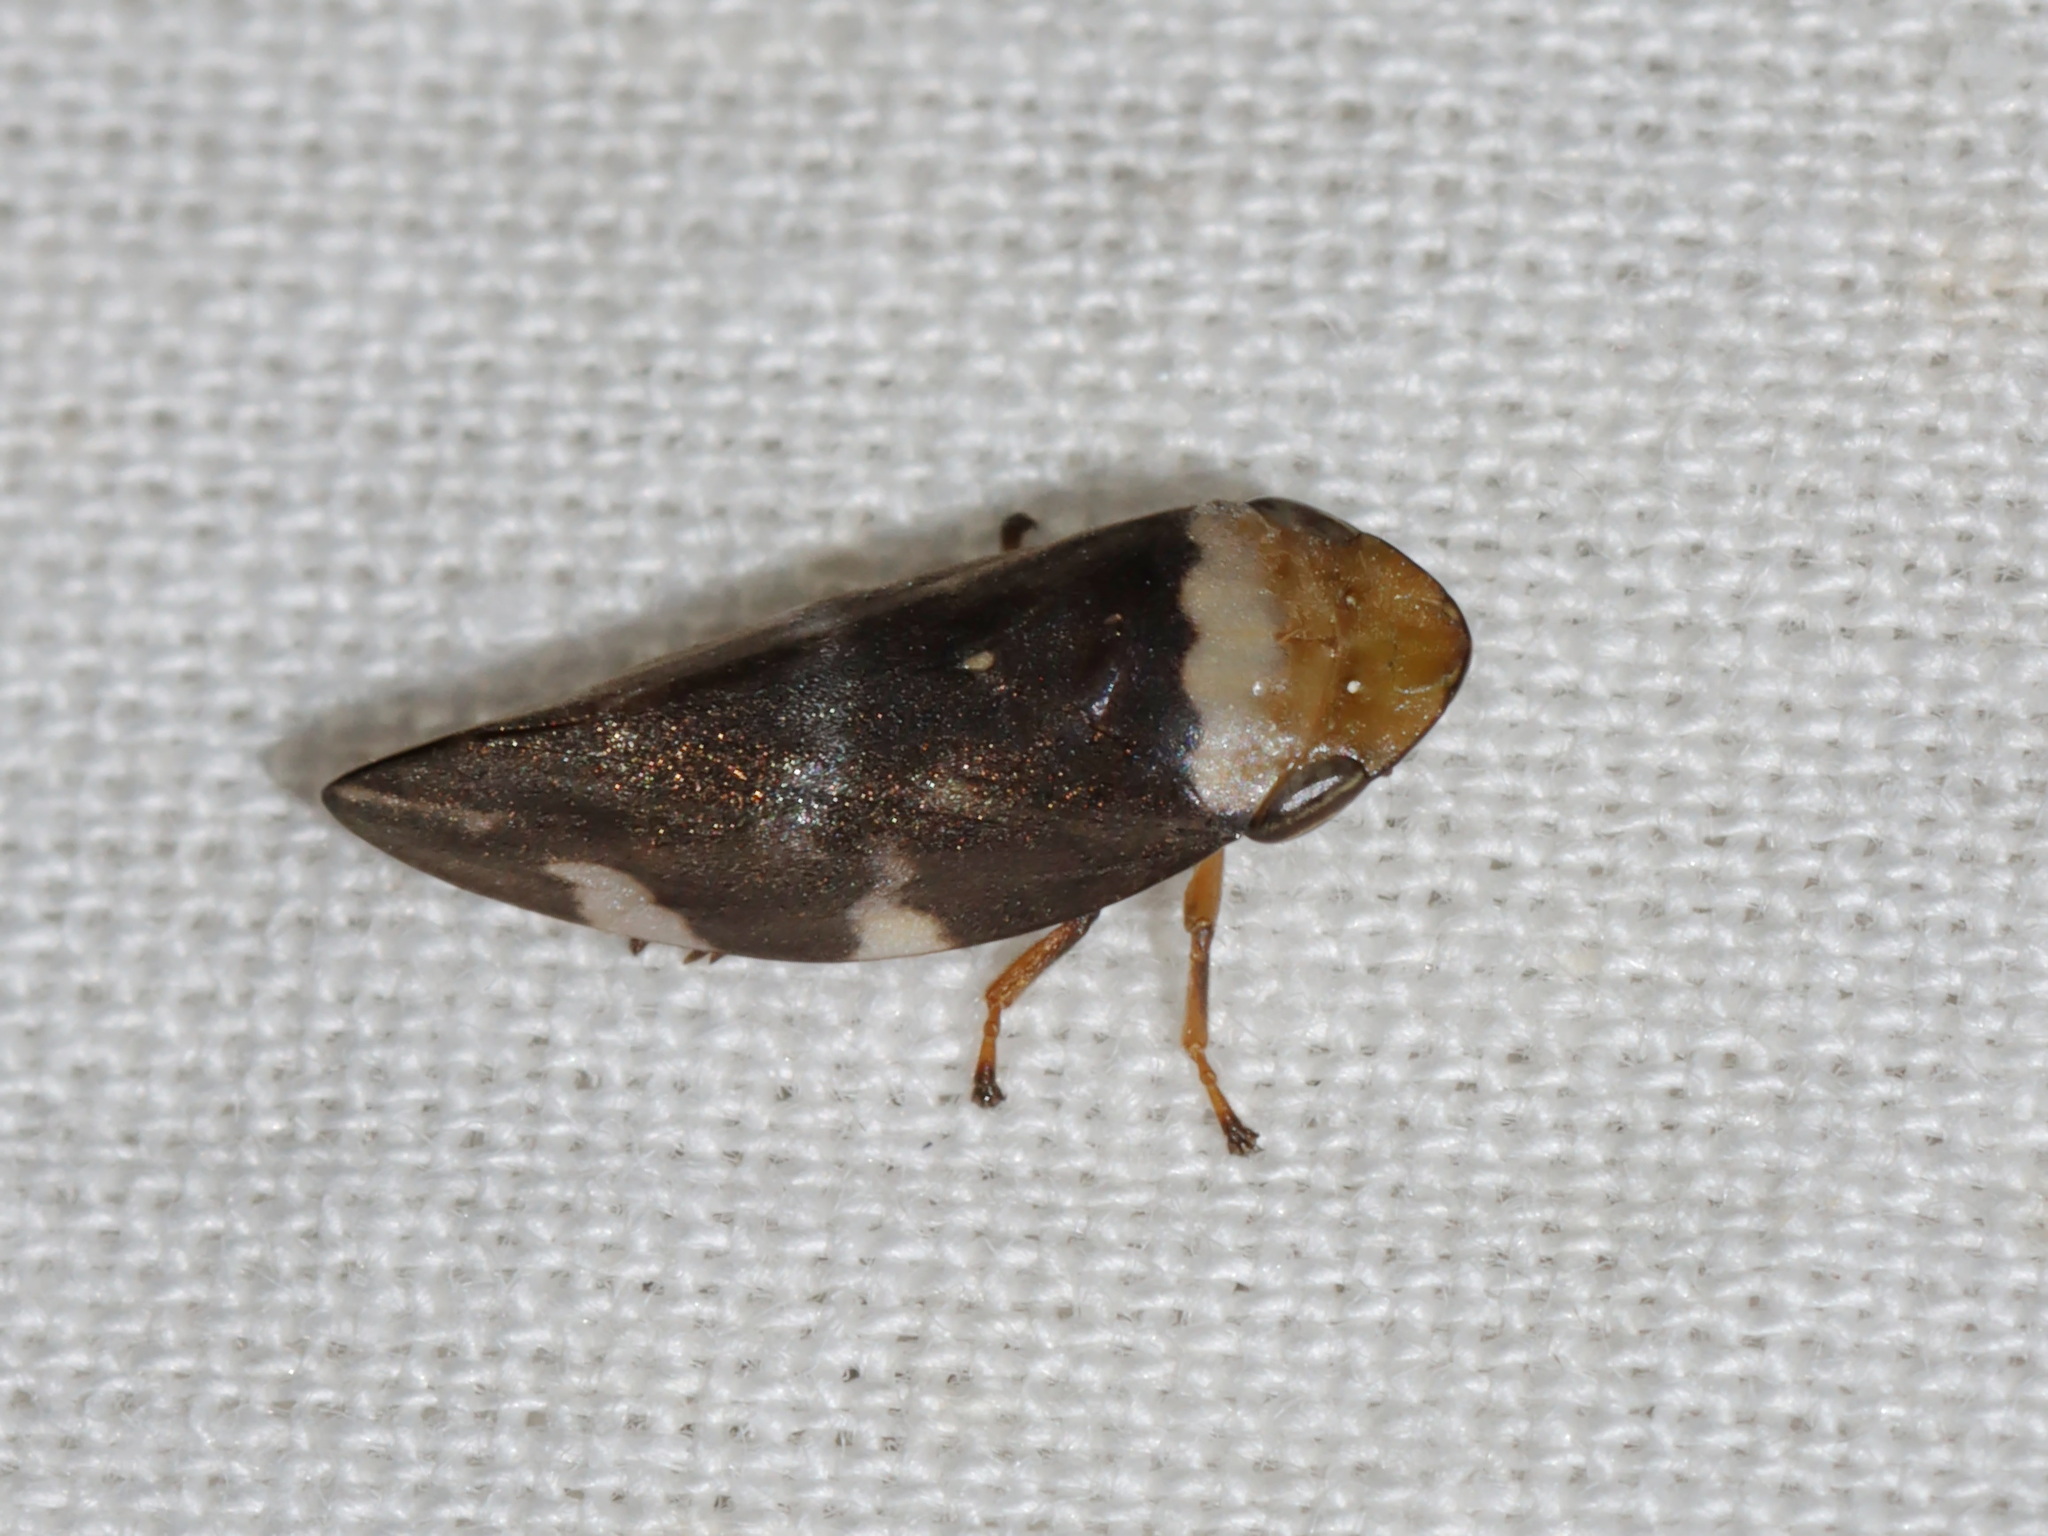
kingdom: Animalia
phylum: Arthropoda
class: Insecta
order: Hemiptera
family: Aphrophoridae
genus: Ptyelinellus
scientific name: Ptyelinellus praefractus
